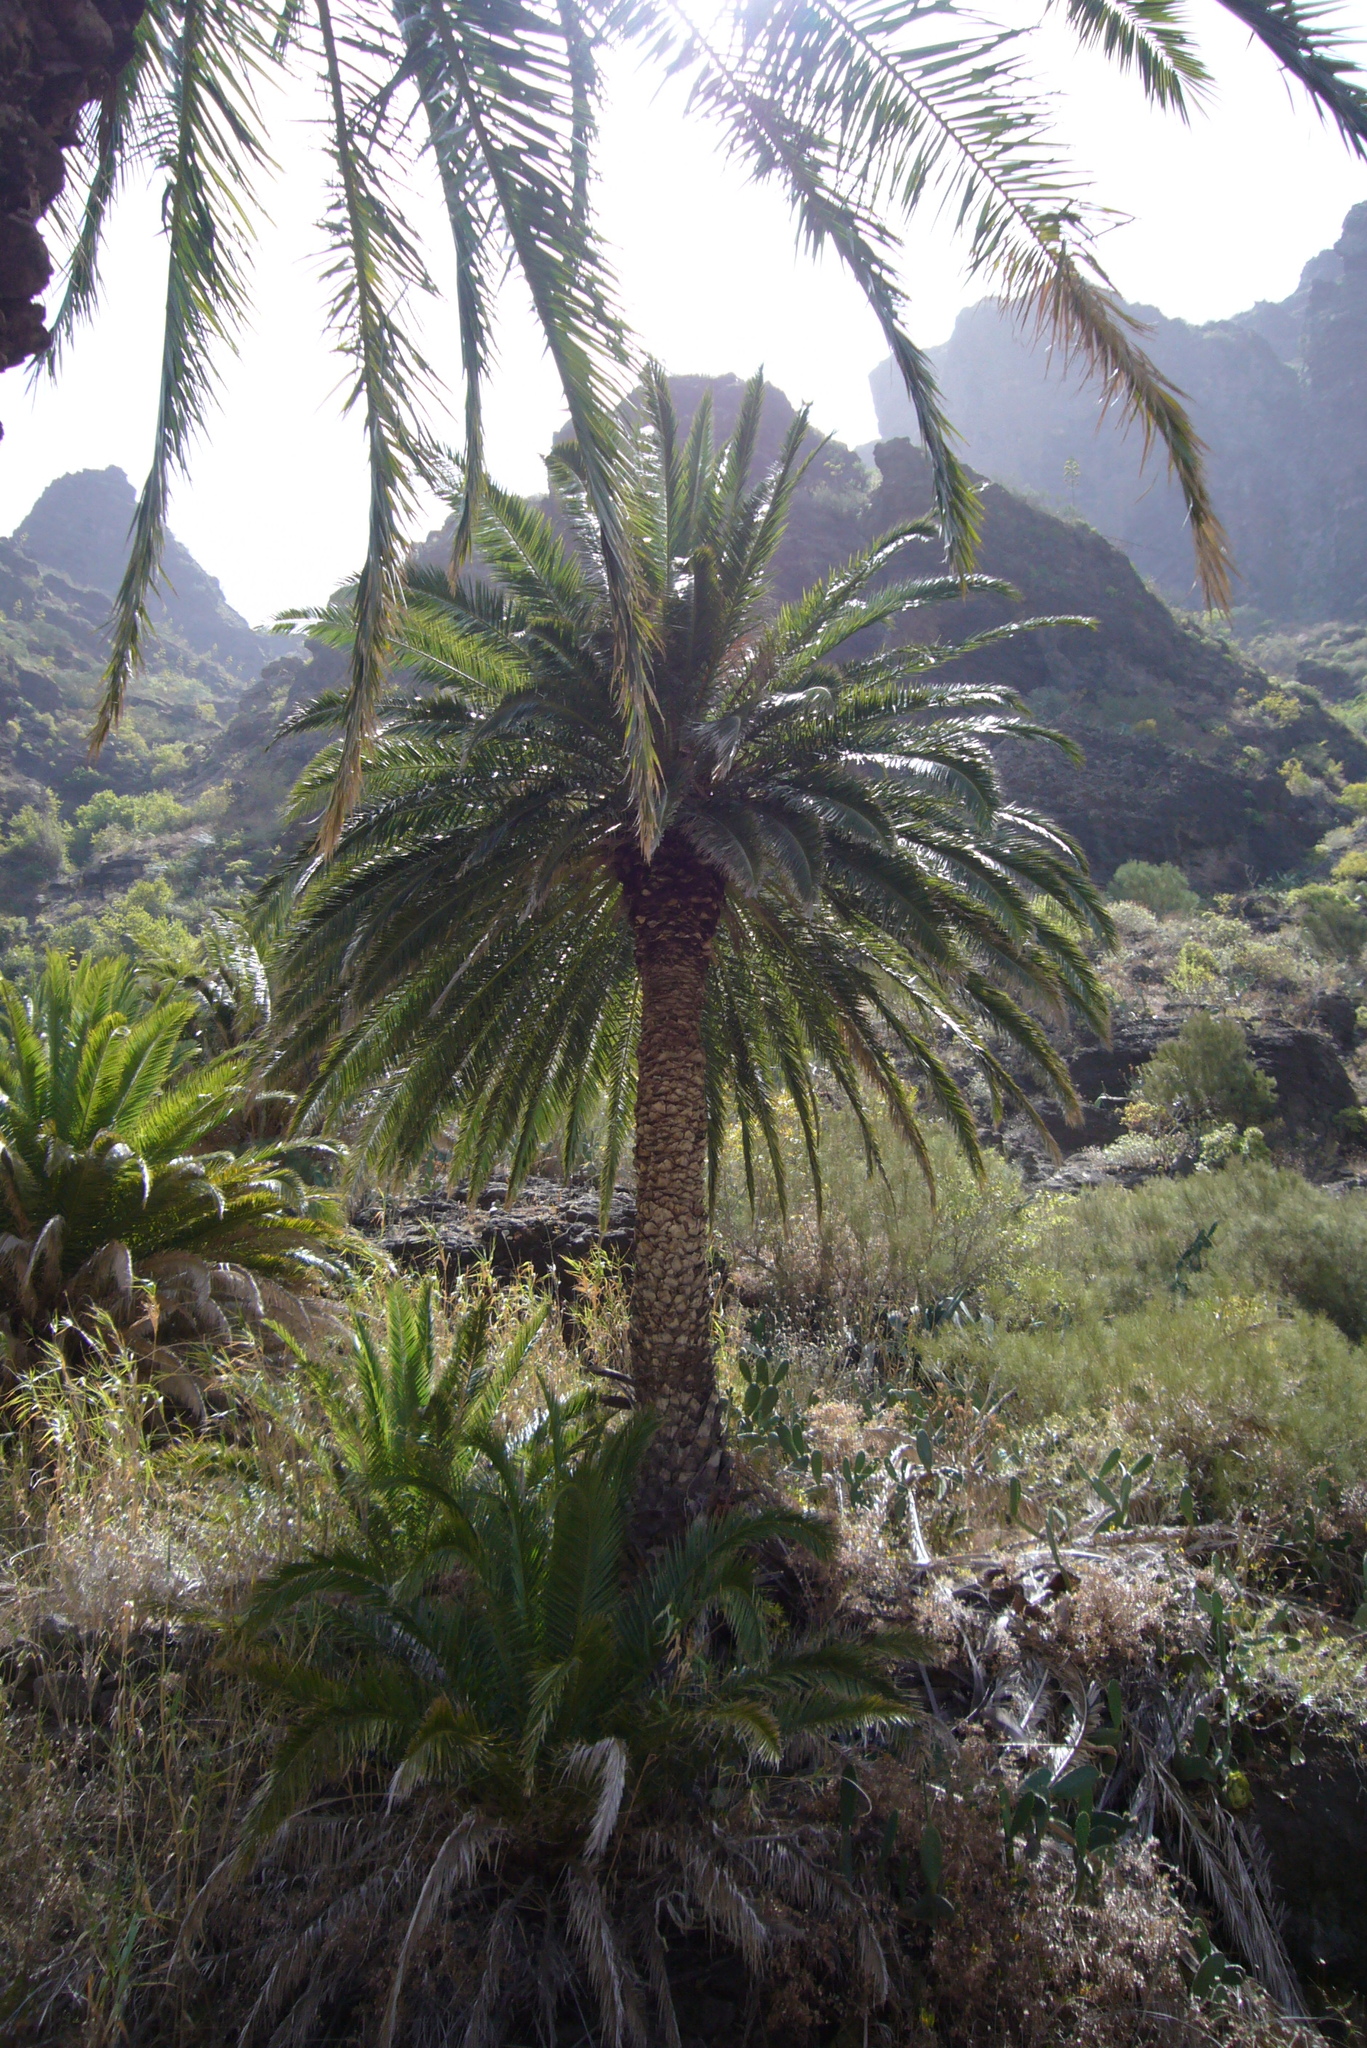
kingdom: Plantae
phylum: Tracheophyta
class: Liliopsida
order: Arecales
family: Arecaceae
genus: Phoenix
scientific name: Phoenix canariensis
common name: Canary island date palm
